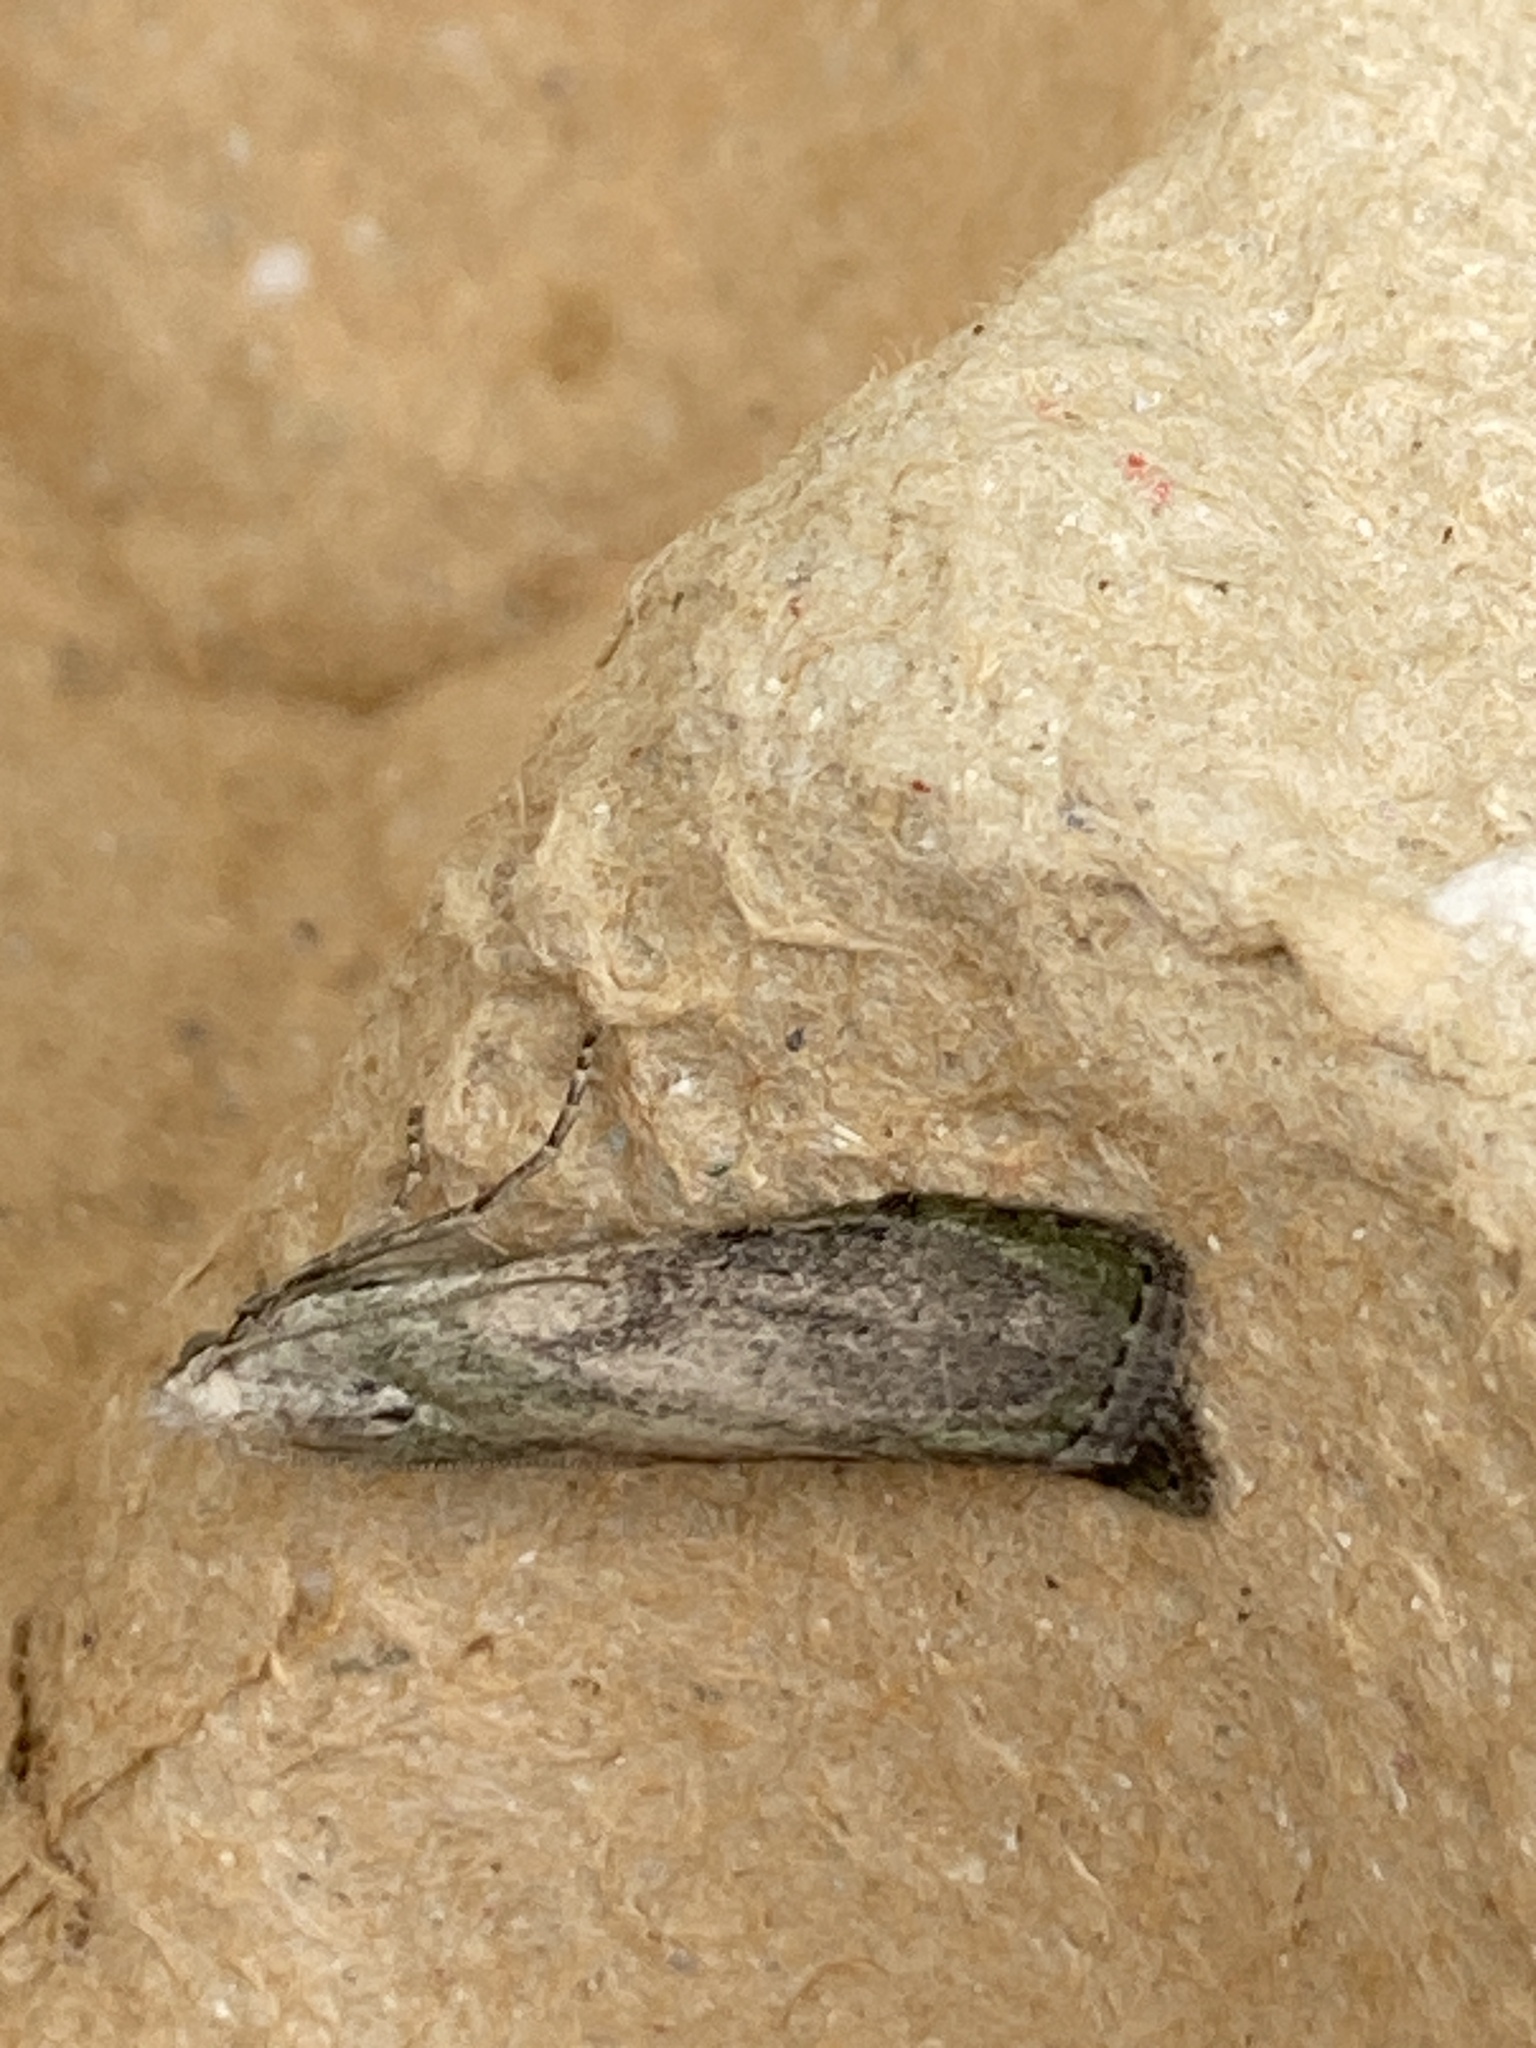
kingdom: Animalia
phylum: Arthropoda
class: Insecta
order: Lepidoptera
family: Pyralidae
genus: Aphomia
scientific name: Aphomia sociella
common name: Bee moth
